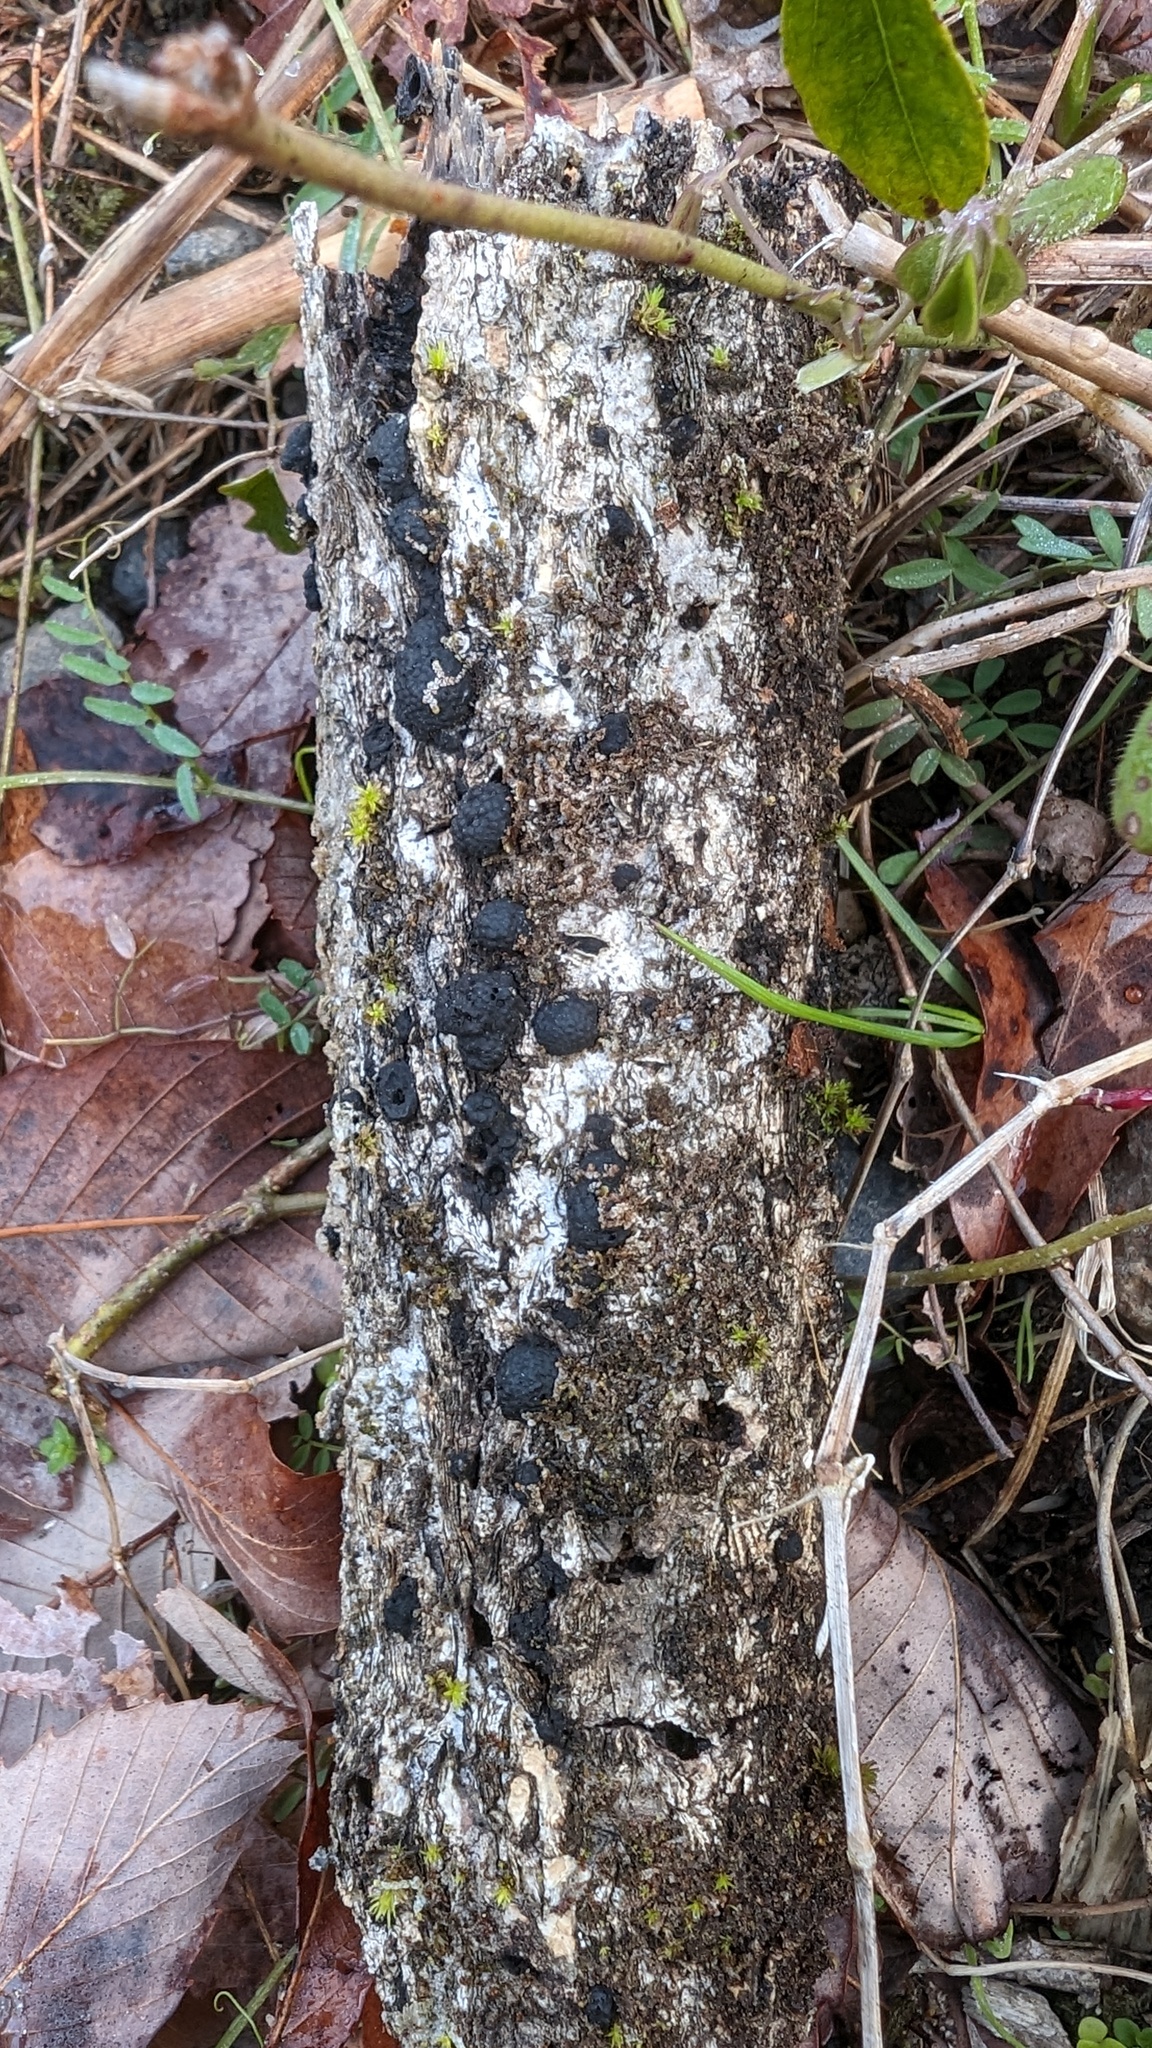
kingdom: Fungi
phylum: Ascomycota
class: Sordariomycetes
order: Xylariales
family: Hypoxylaceae
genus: Annulohypoxylon
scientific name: Annulohypoxylon truncatum
